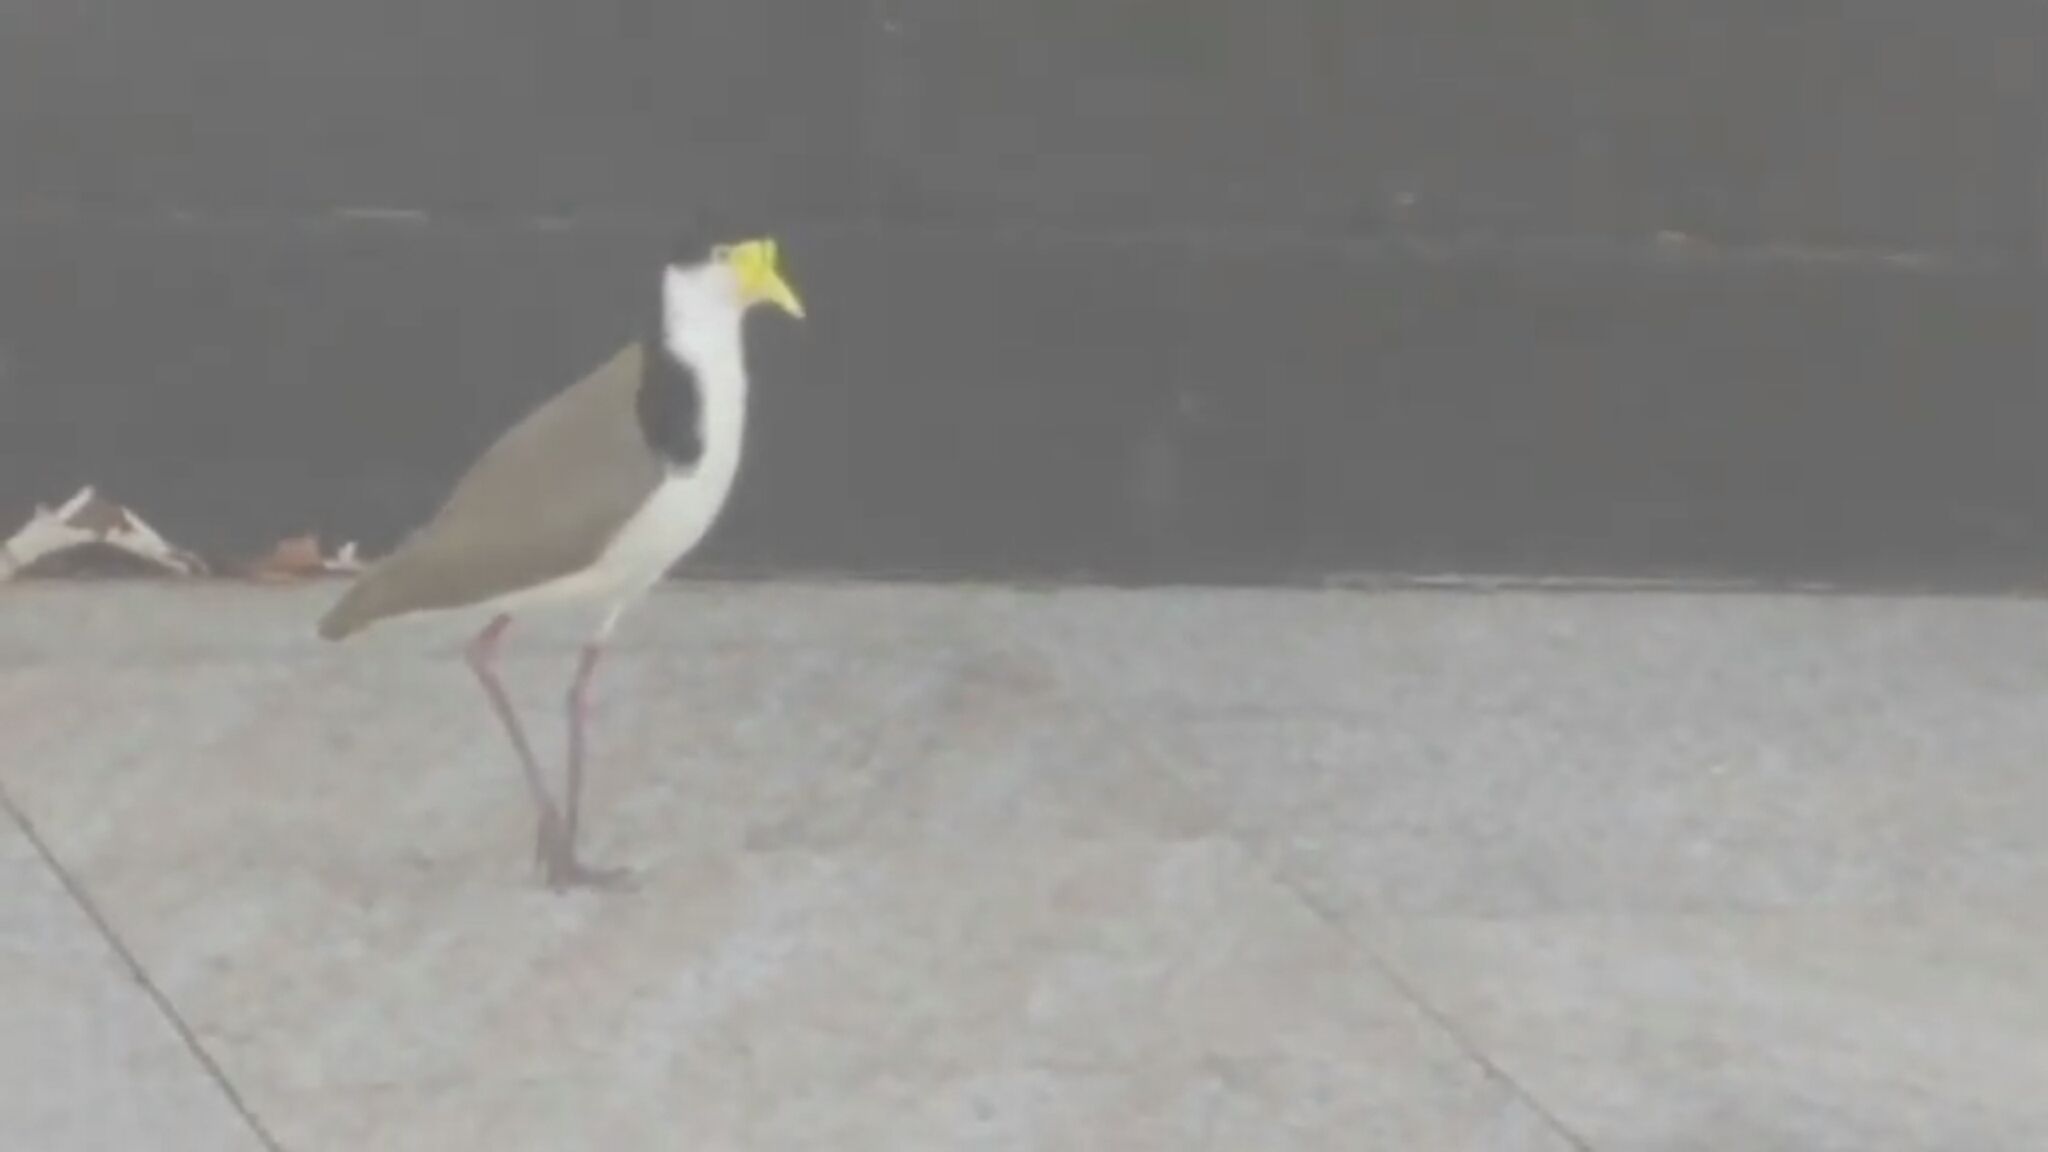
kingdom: Animalia
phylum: Chordata
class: Aves
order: Charadriiformes
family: Charadriidae
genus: Vanellus
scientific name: Vanellus miles
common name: Masked lapwing
